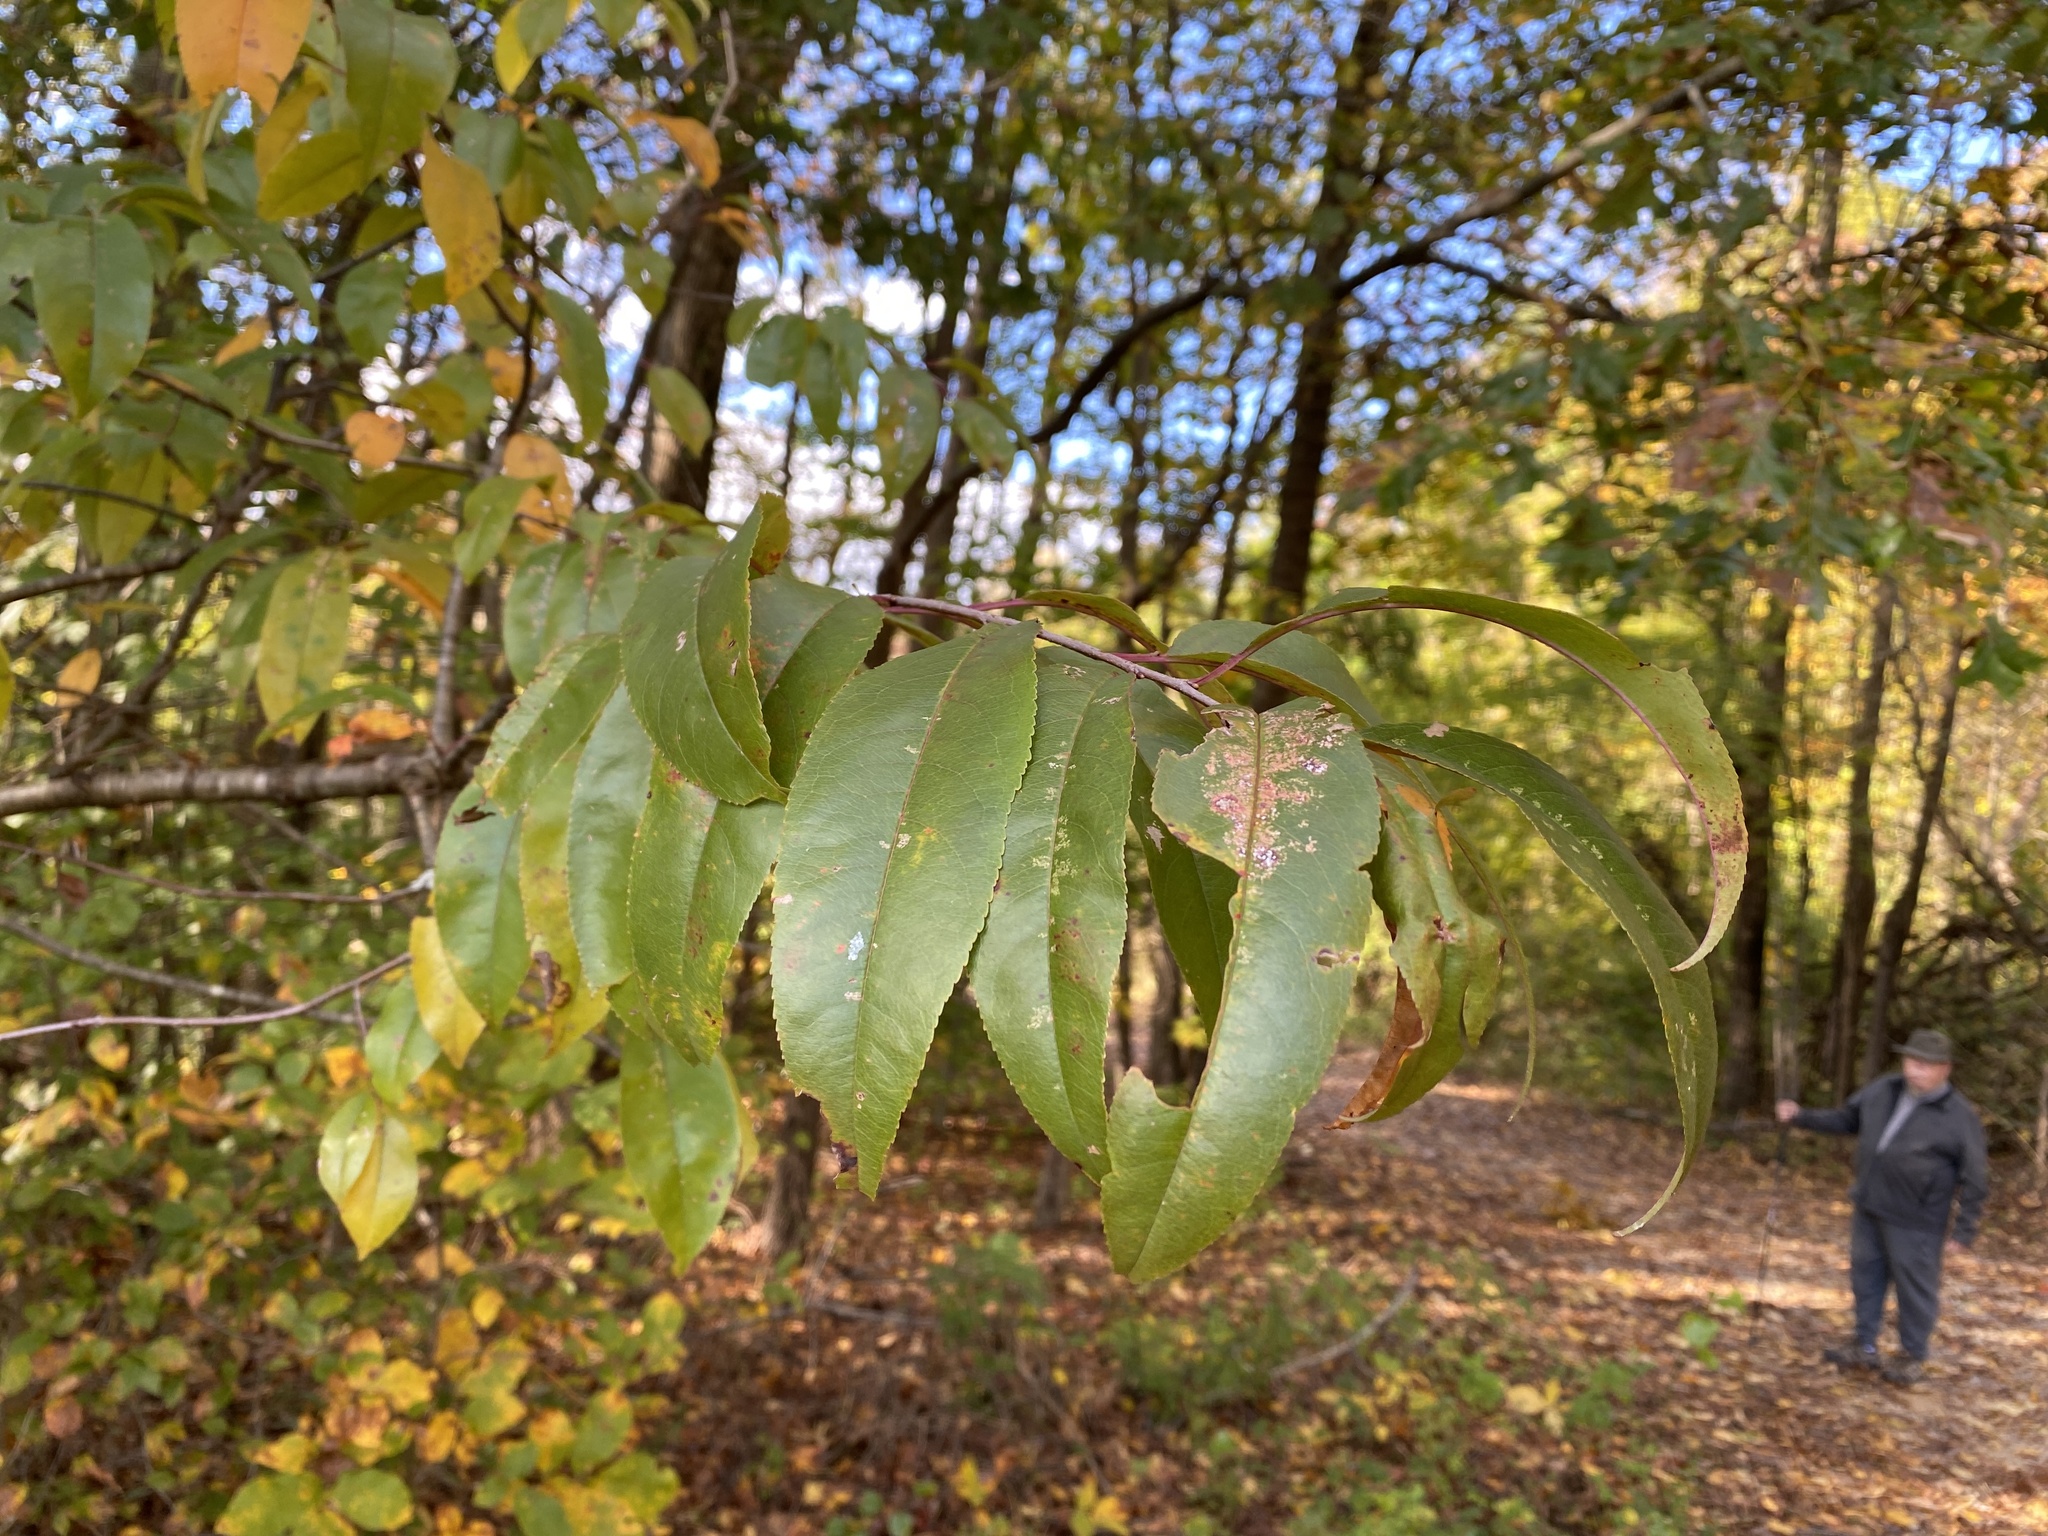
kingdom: Plantae
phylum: Tracheophyta
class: Magnoliopsida
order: Rosales
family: Rosaceae
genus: Prunus
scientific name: Prunus serotina
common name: Black cherry
